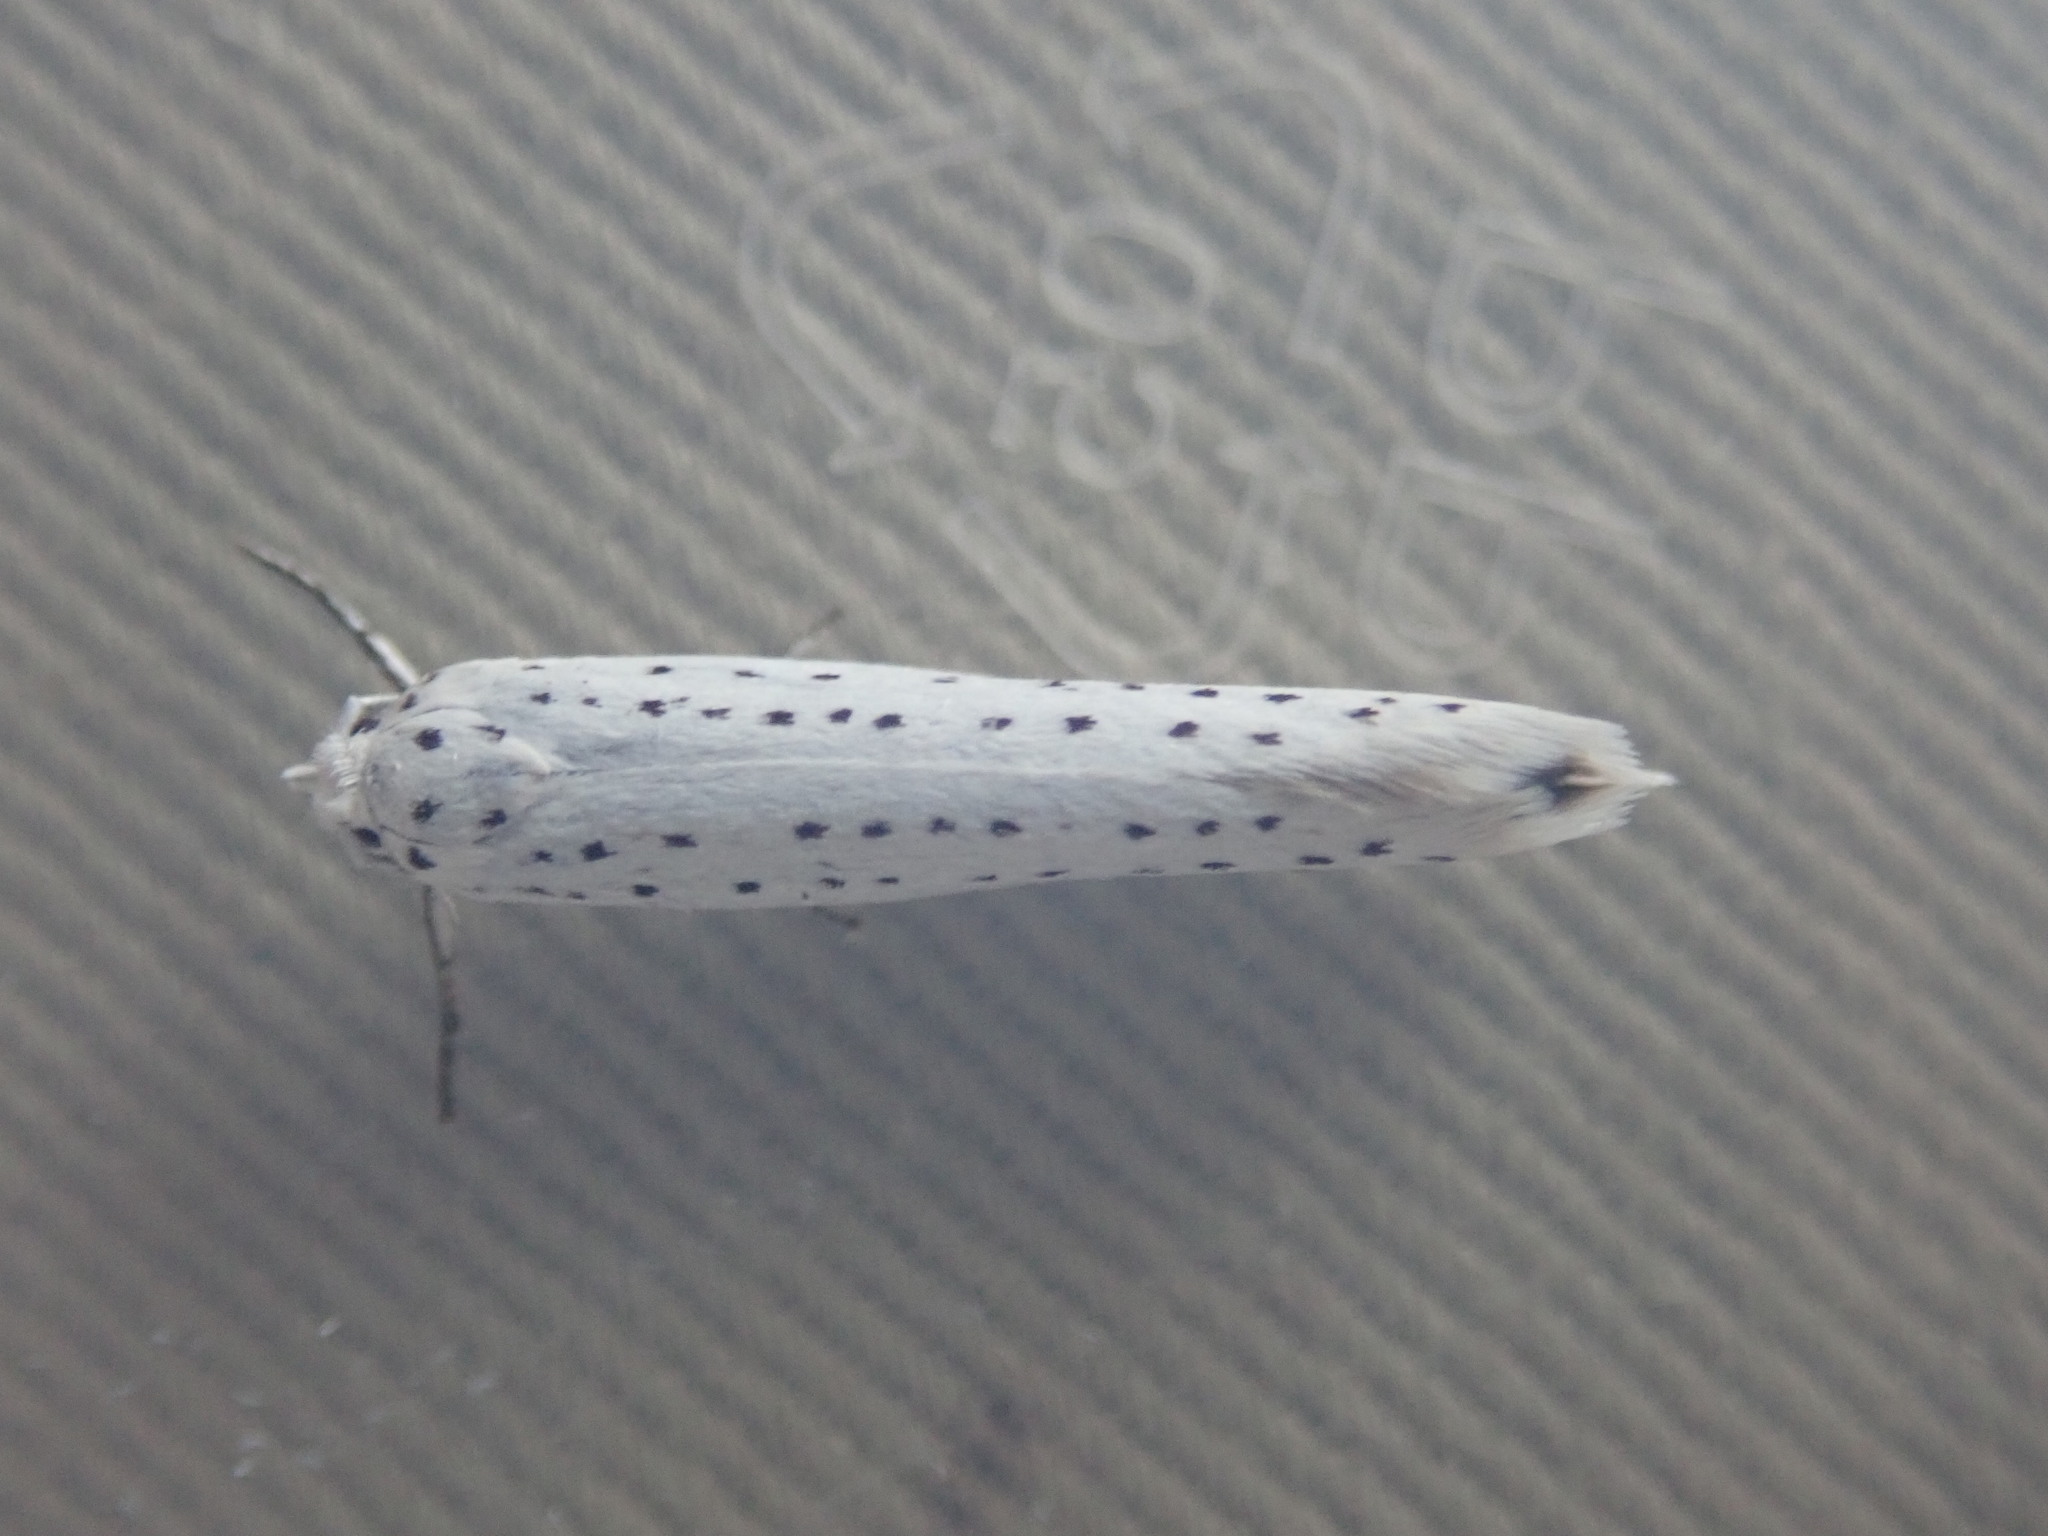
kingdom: Animalia
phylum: Arthropoda
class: Insecta
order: Lepidoptera
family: Yponomeutidae
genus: Yponomeuta
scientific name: Yponomeuta evonymella
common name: Bird-cherry ermine
